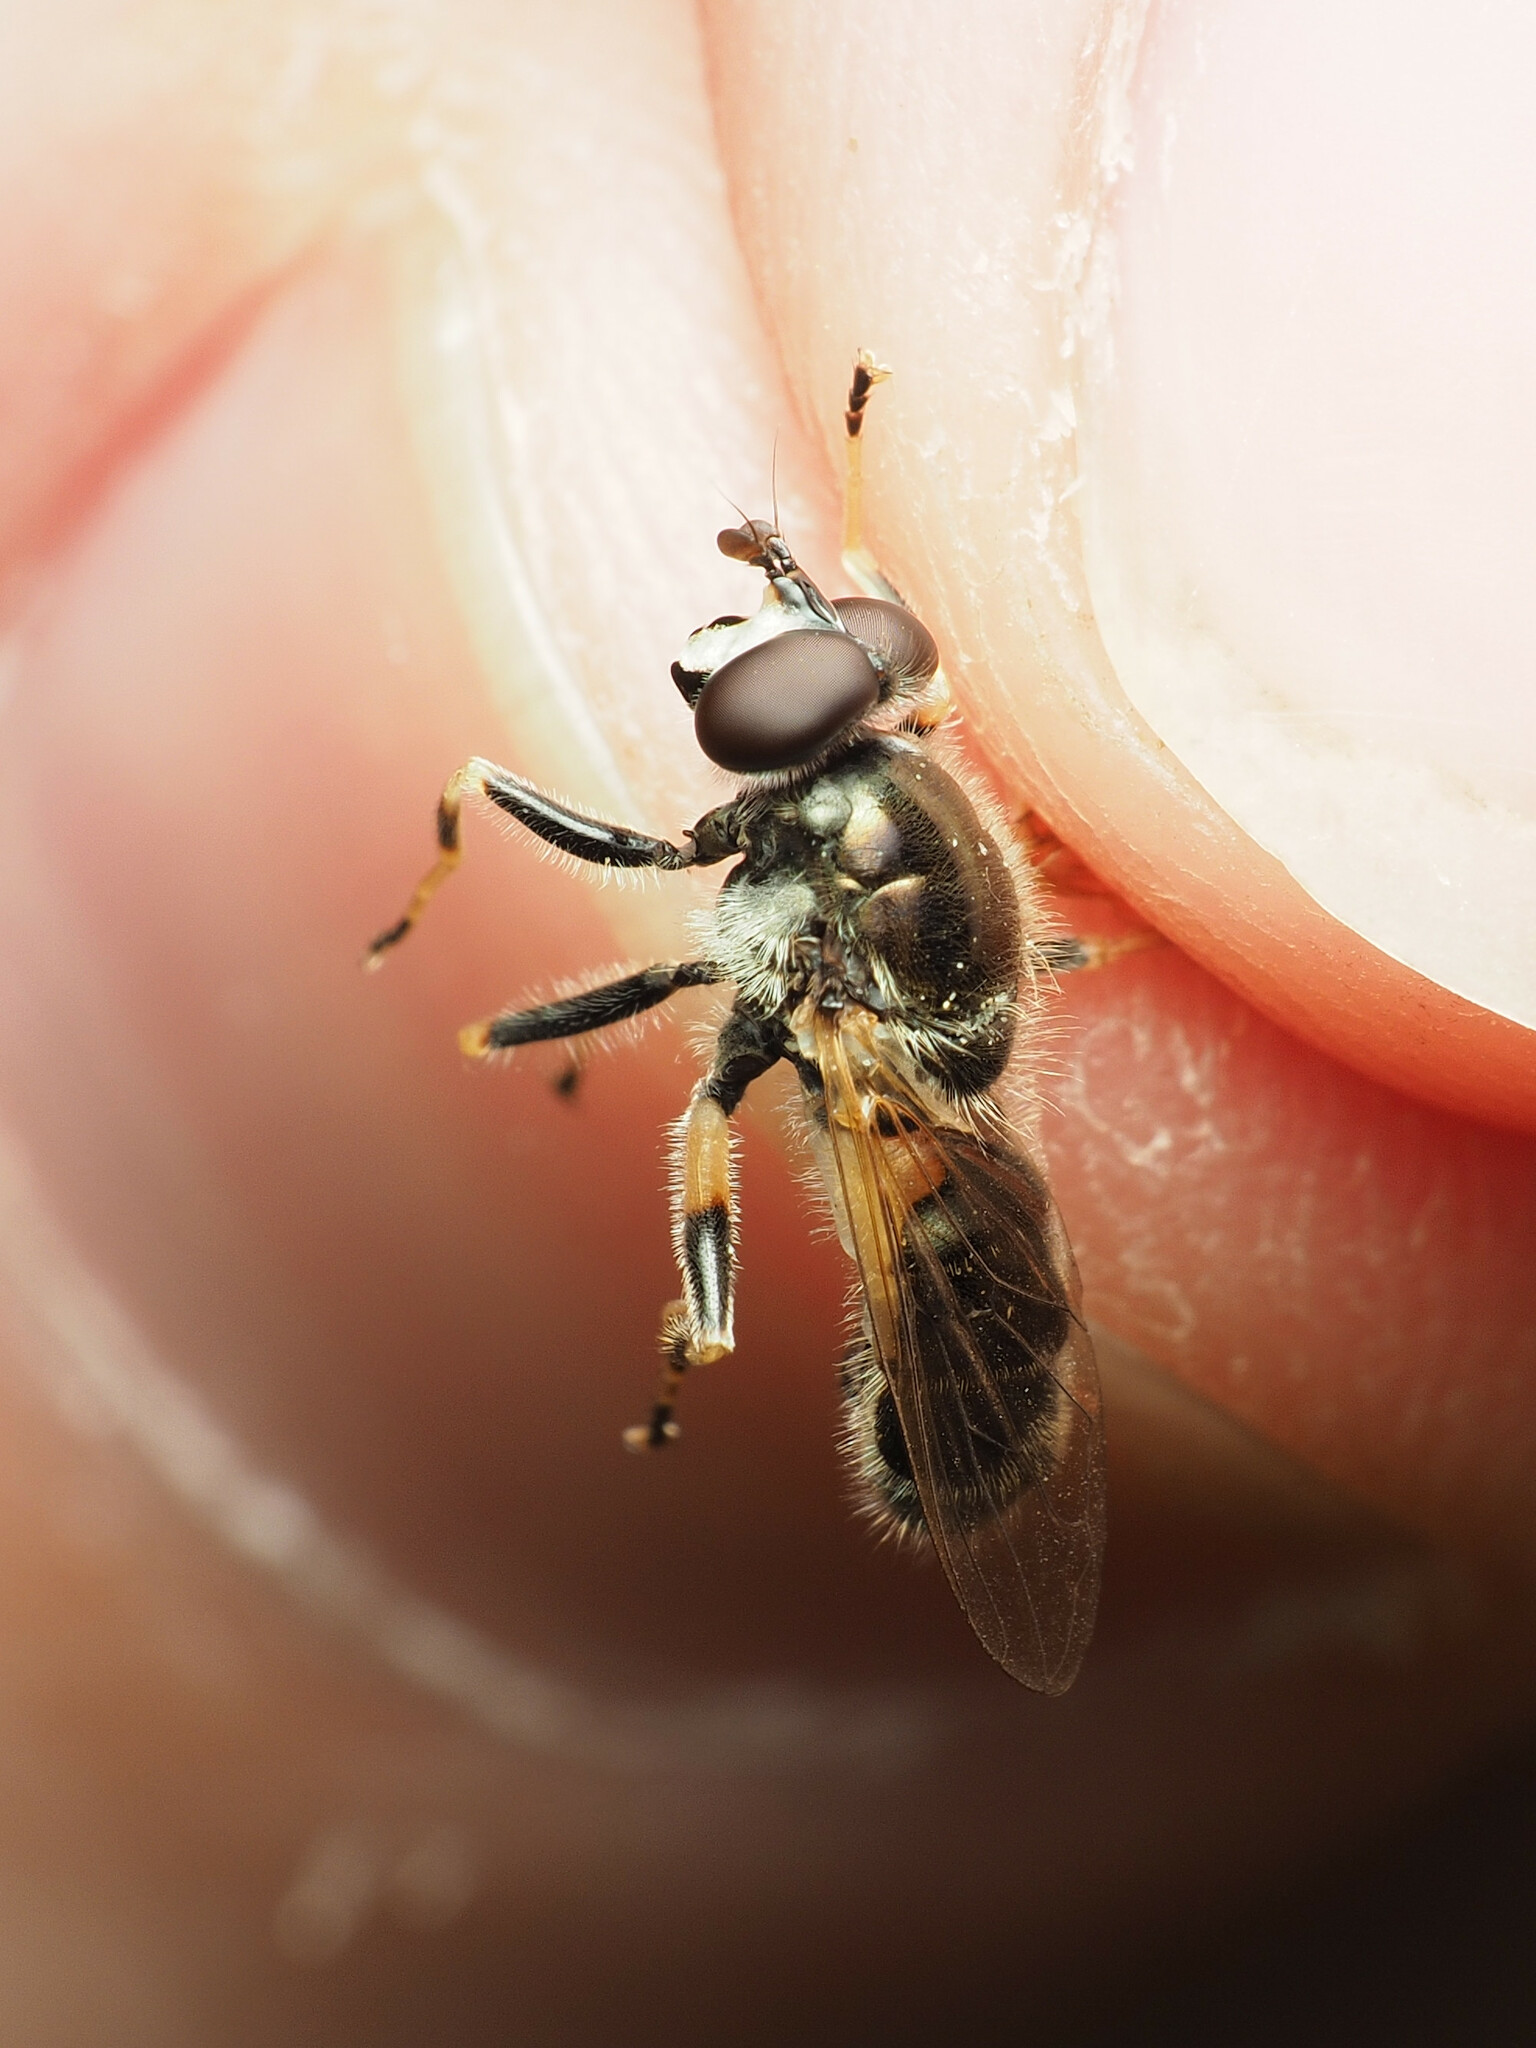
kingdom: Animalia
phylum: Arthropoda
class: Insecta
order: Diptera
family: Syrphidae
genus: Blera
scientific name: Blera badia
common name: Common wood fly
